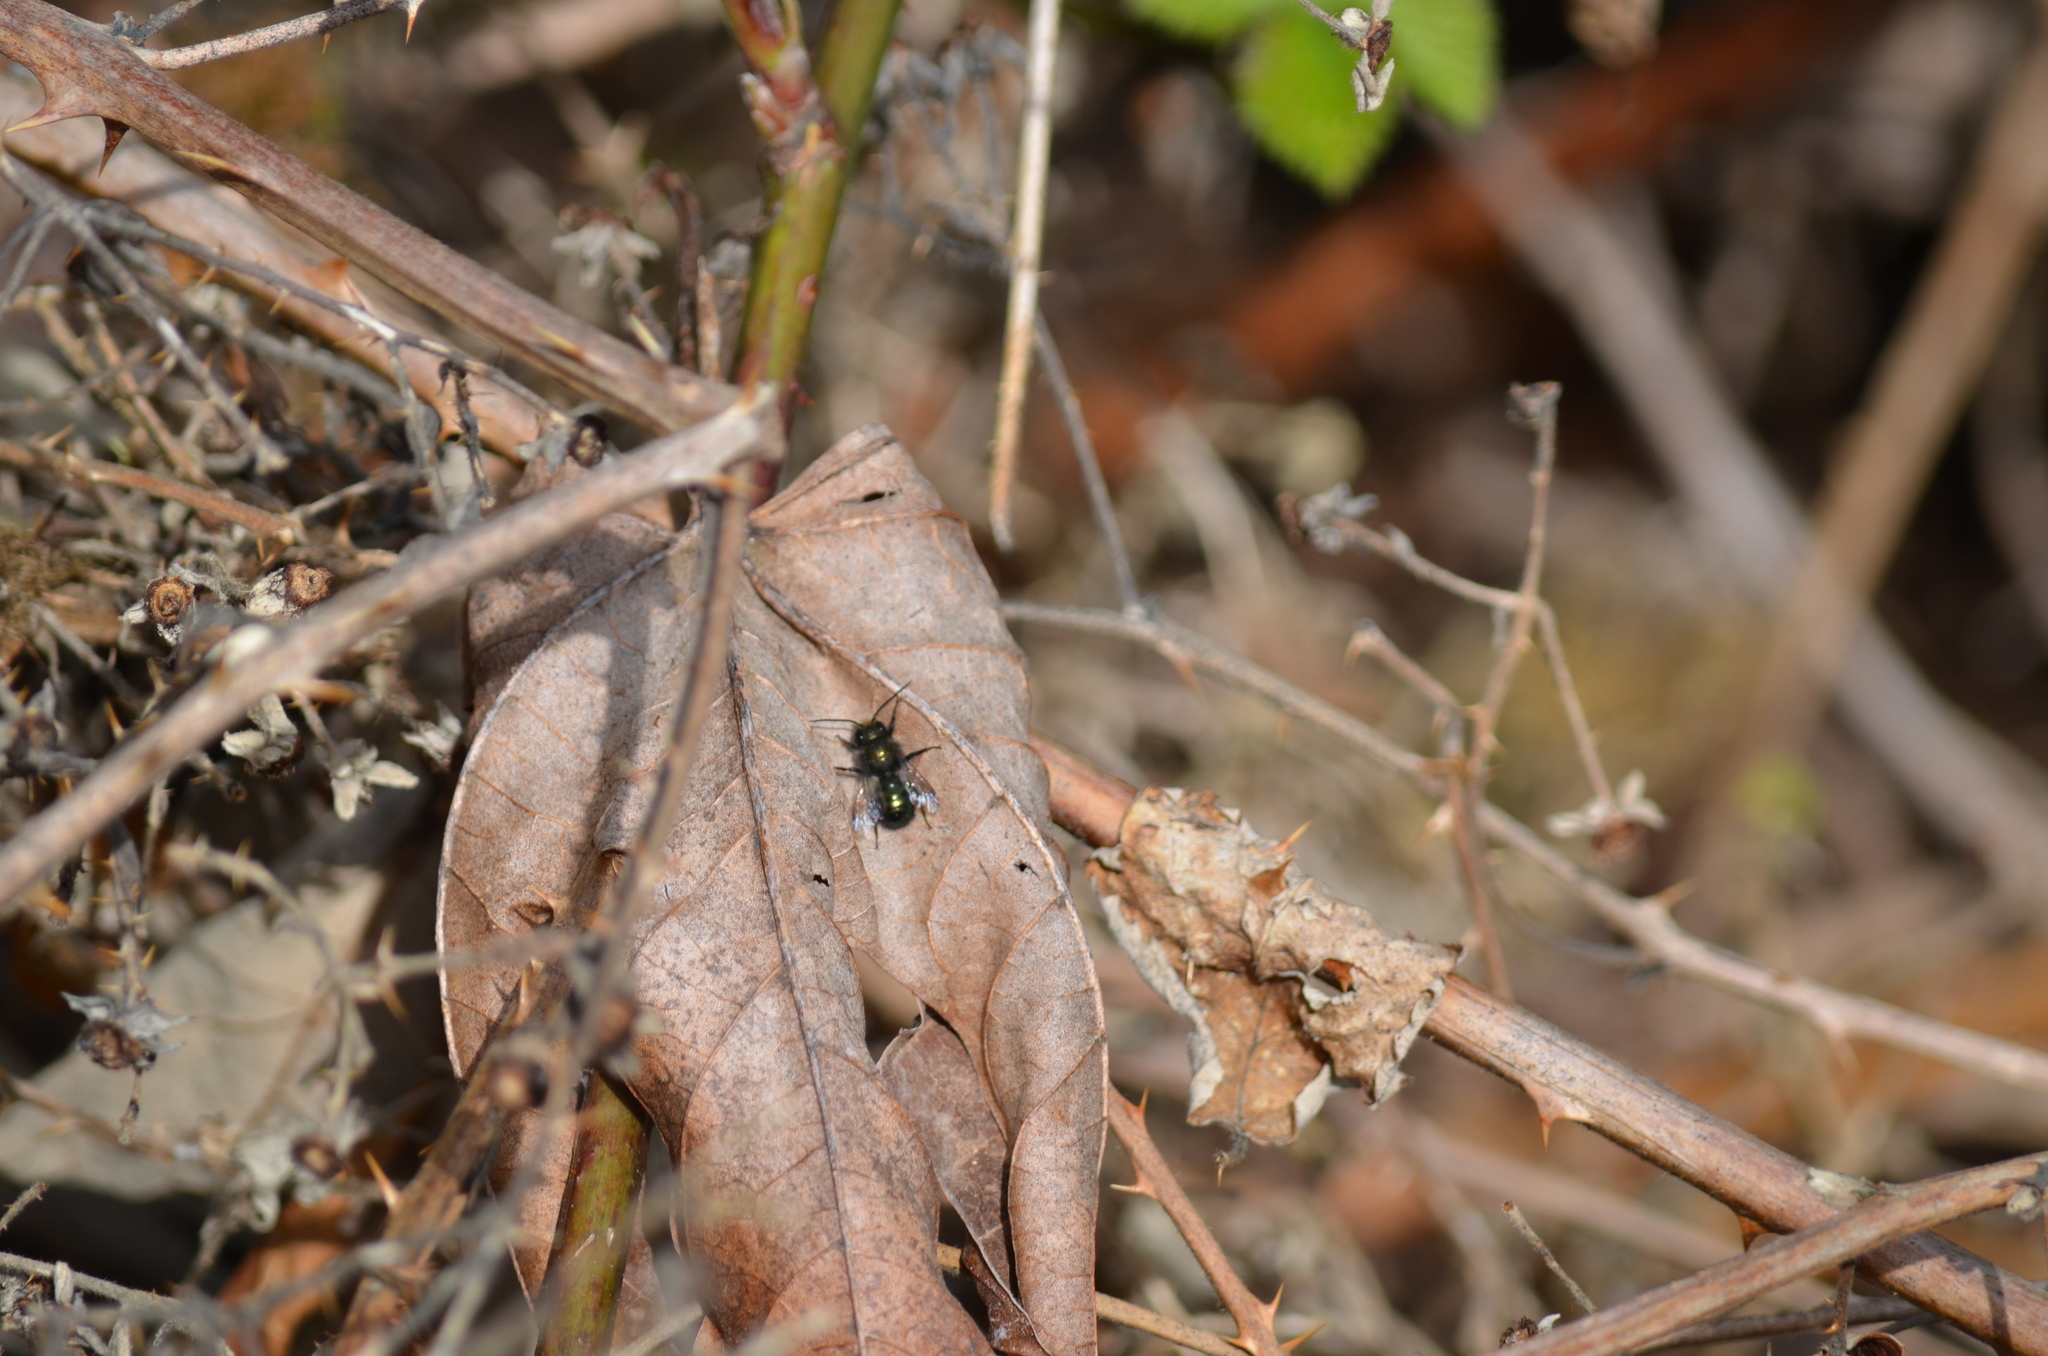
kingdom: Animalia
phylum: Arthropoda
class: Insecta
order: Hymenoptera
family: Megachilidae
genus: Osmia
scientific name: Osmia lignaria
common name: Blue orchard bee
